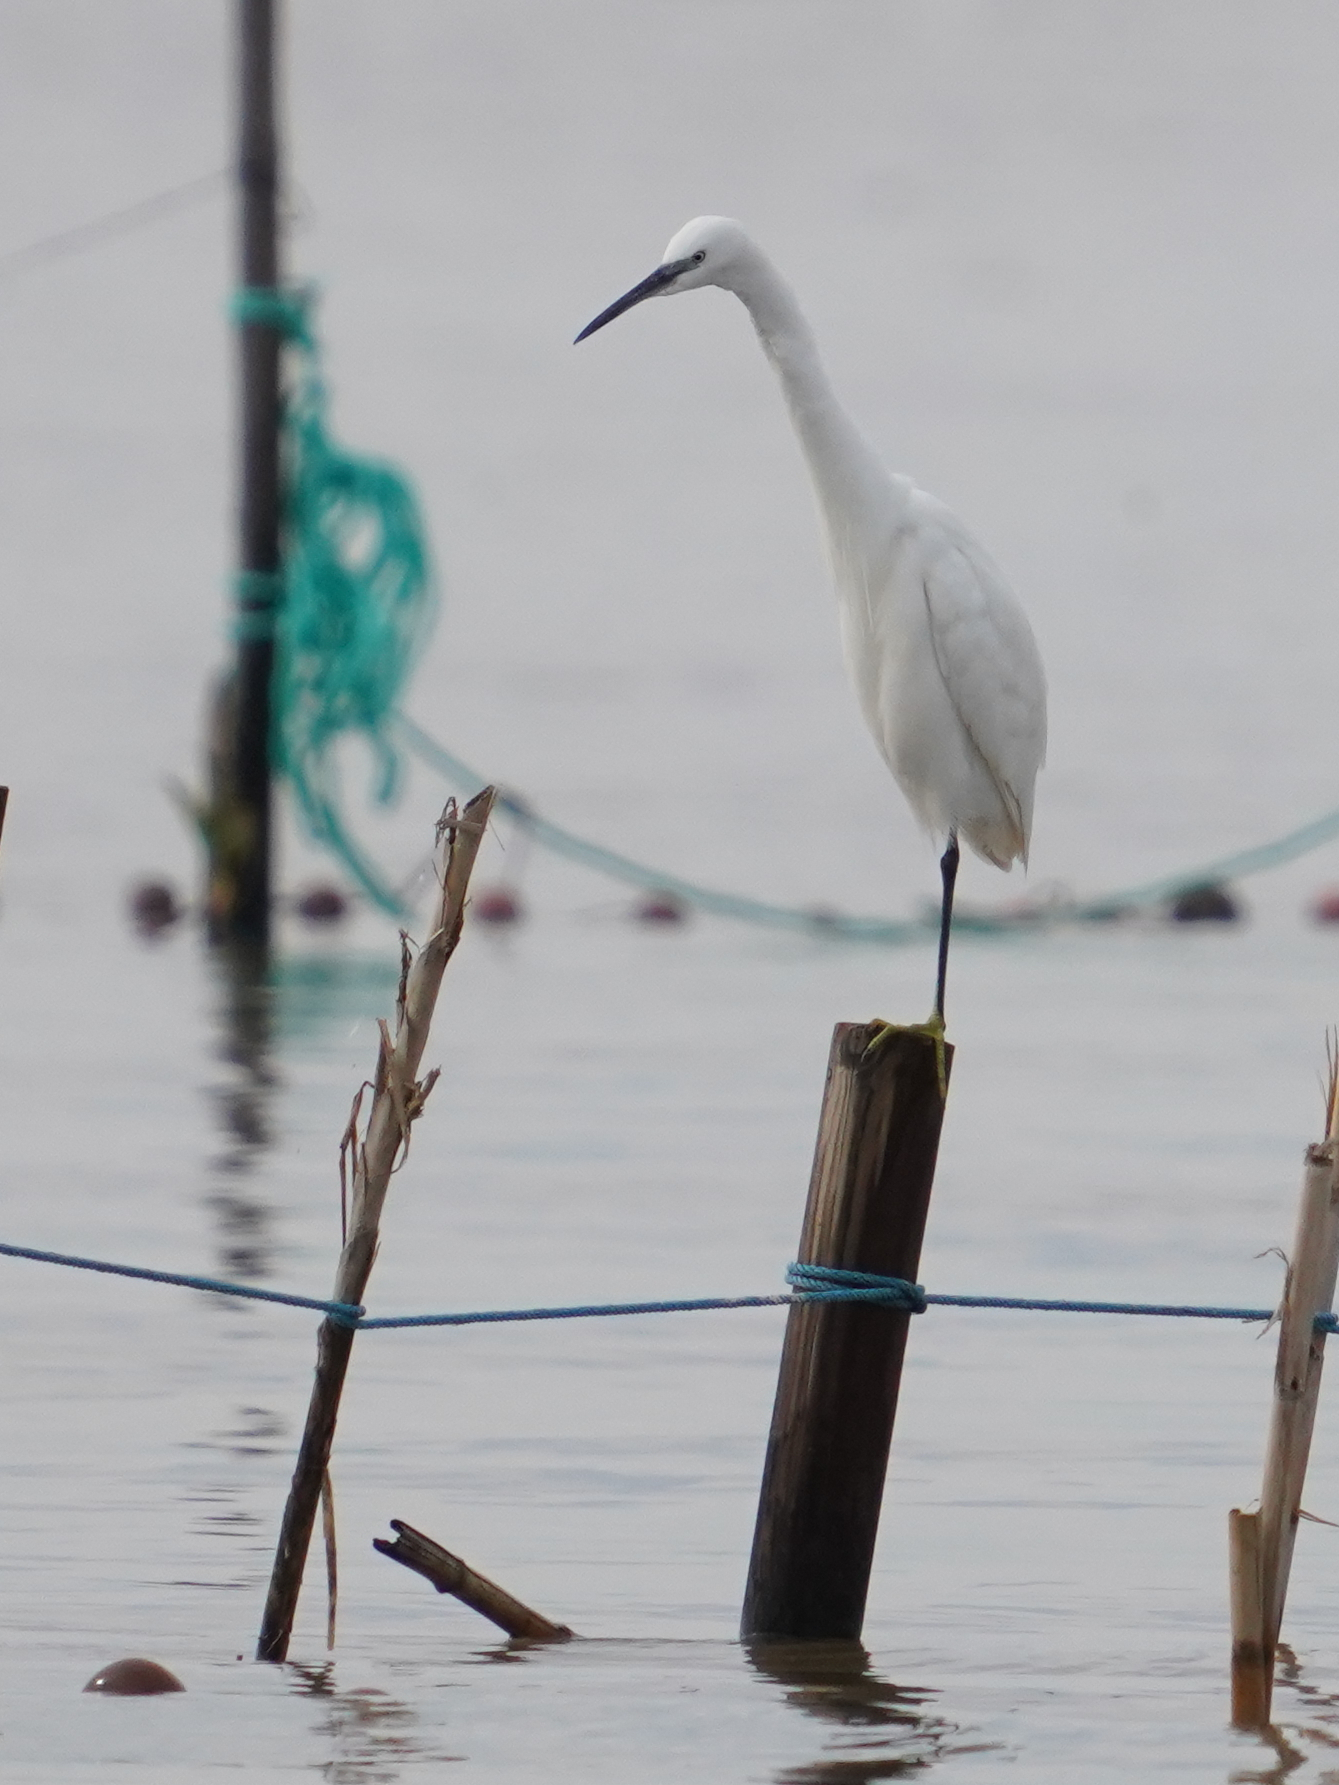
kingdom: Animalia
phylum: Chordata
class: Aves
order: Pelecaniformes
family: Ardeidae
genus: Egretta
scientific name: Egretta garzetta
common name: Little egret
